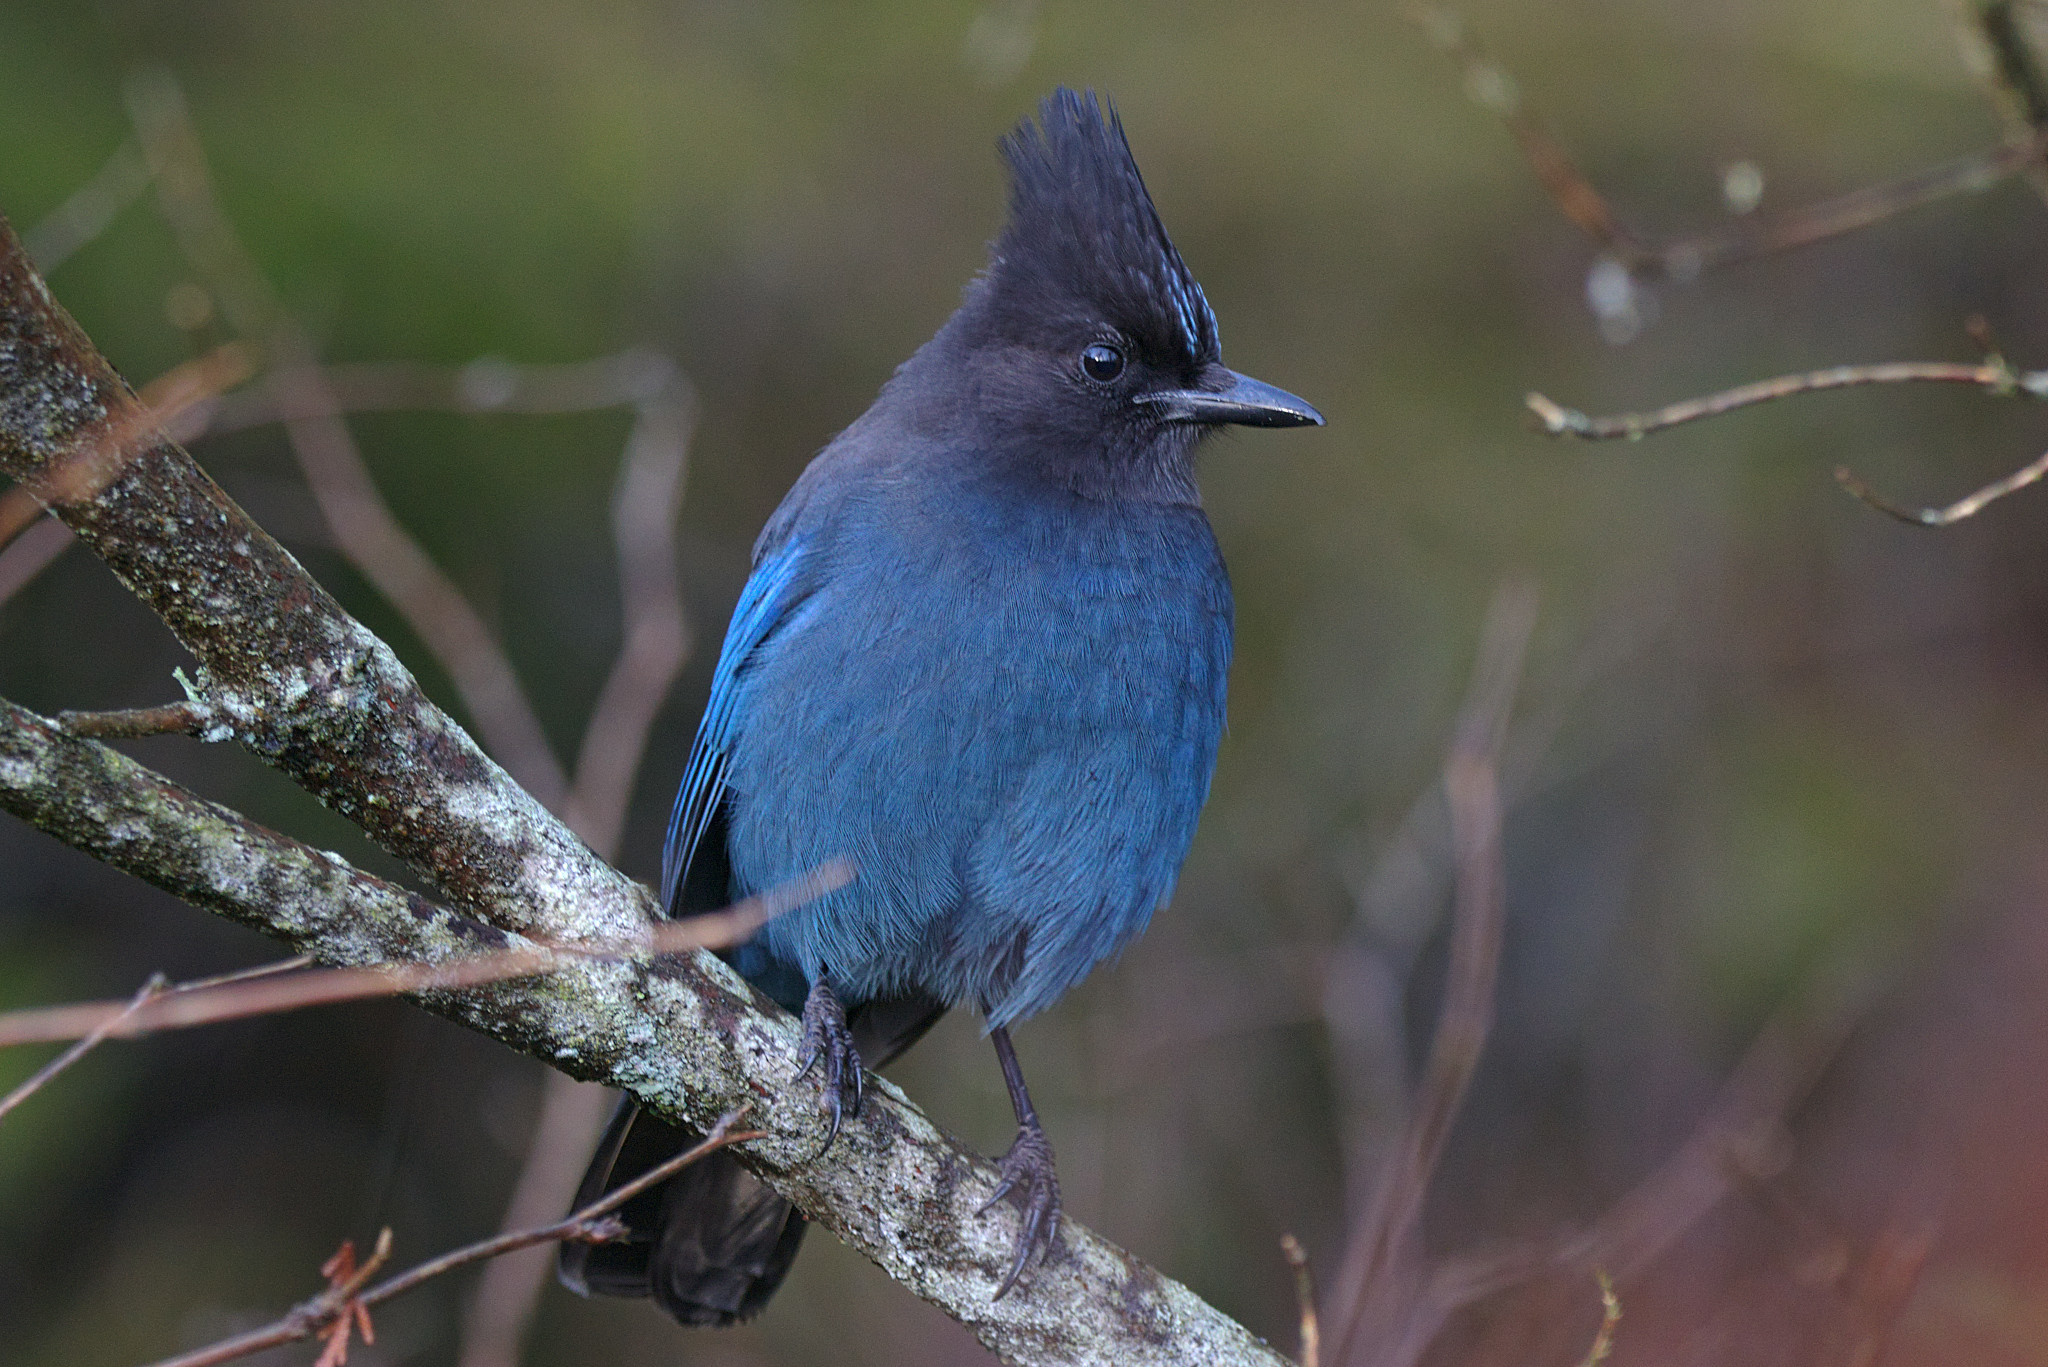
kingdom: Animalia
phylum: Chordata
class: Aves
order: Passeriformes
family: Corvidae
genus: Cyanocitta
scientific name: Cyanocitta stelleri
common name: Steller's jay
